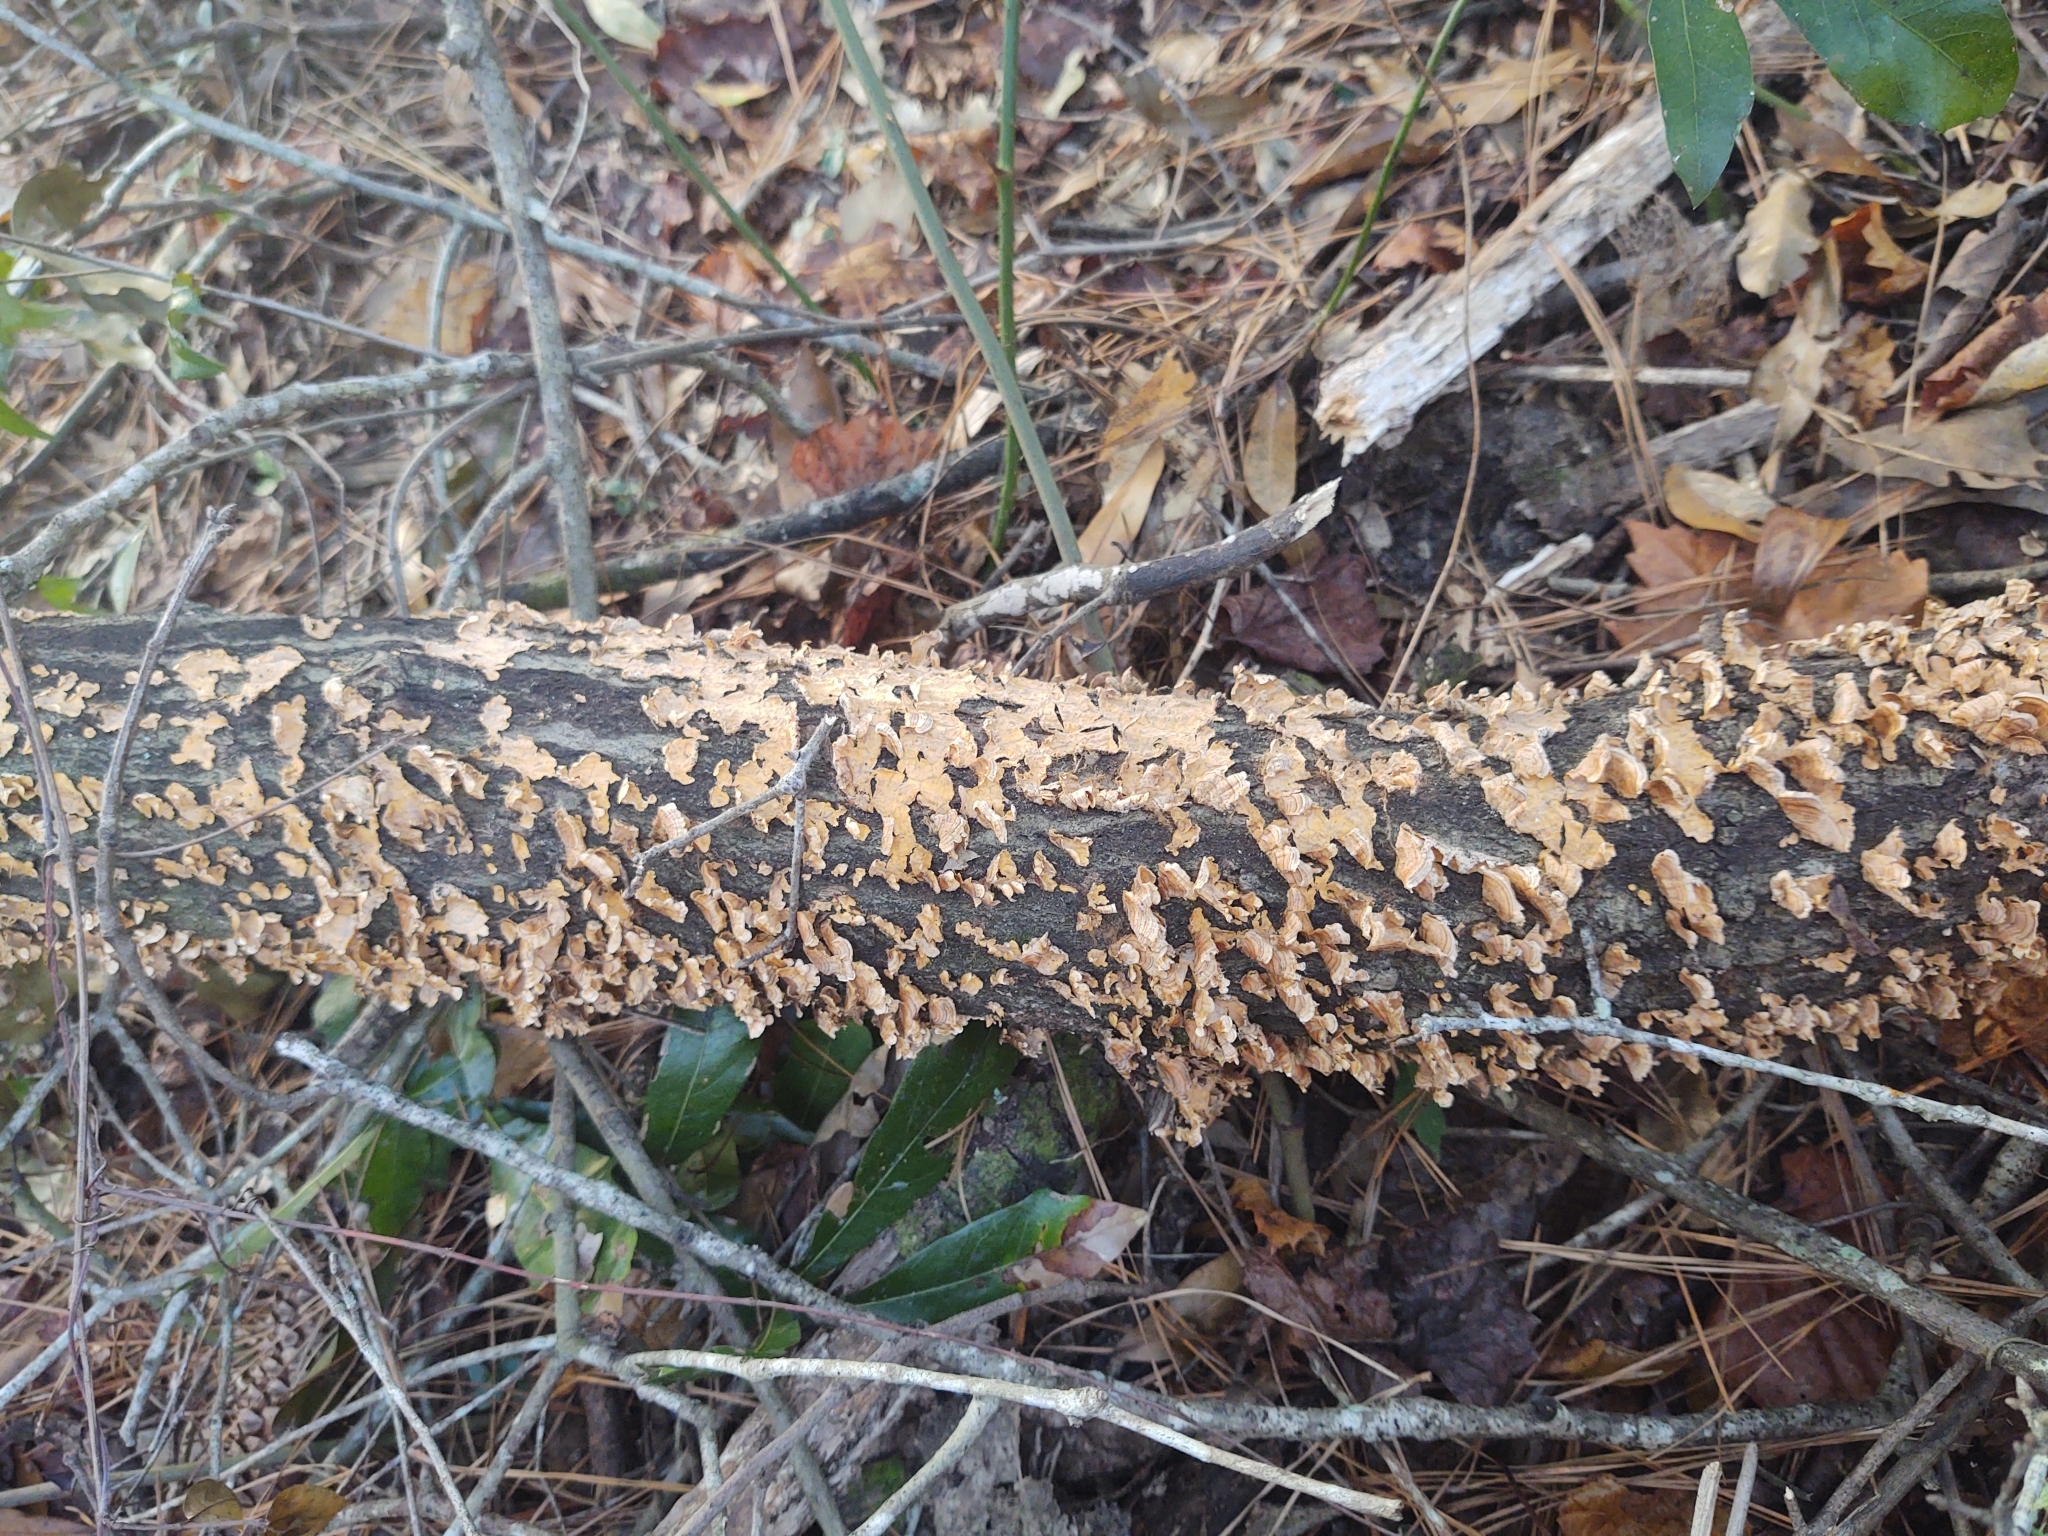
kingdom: Fungi
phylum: Basidiomycota
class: Agaricomycetes
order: Russulales
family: Stereaceae
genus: Stereum
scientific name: Stereum complicatum
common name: Crowded parchment
